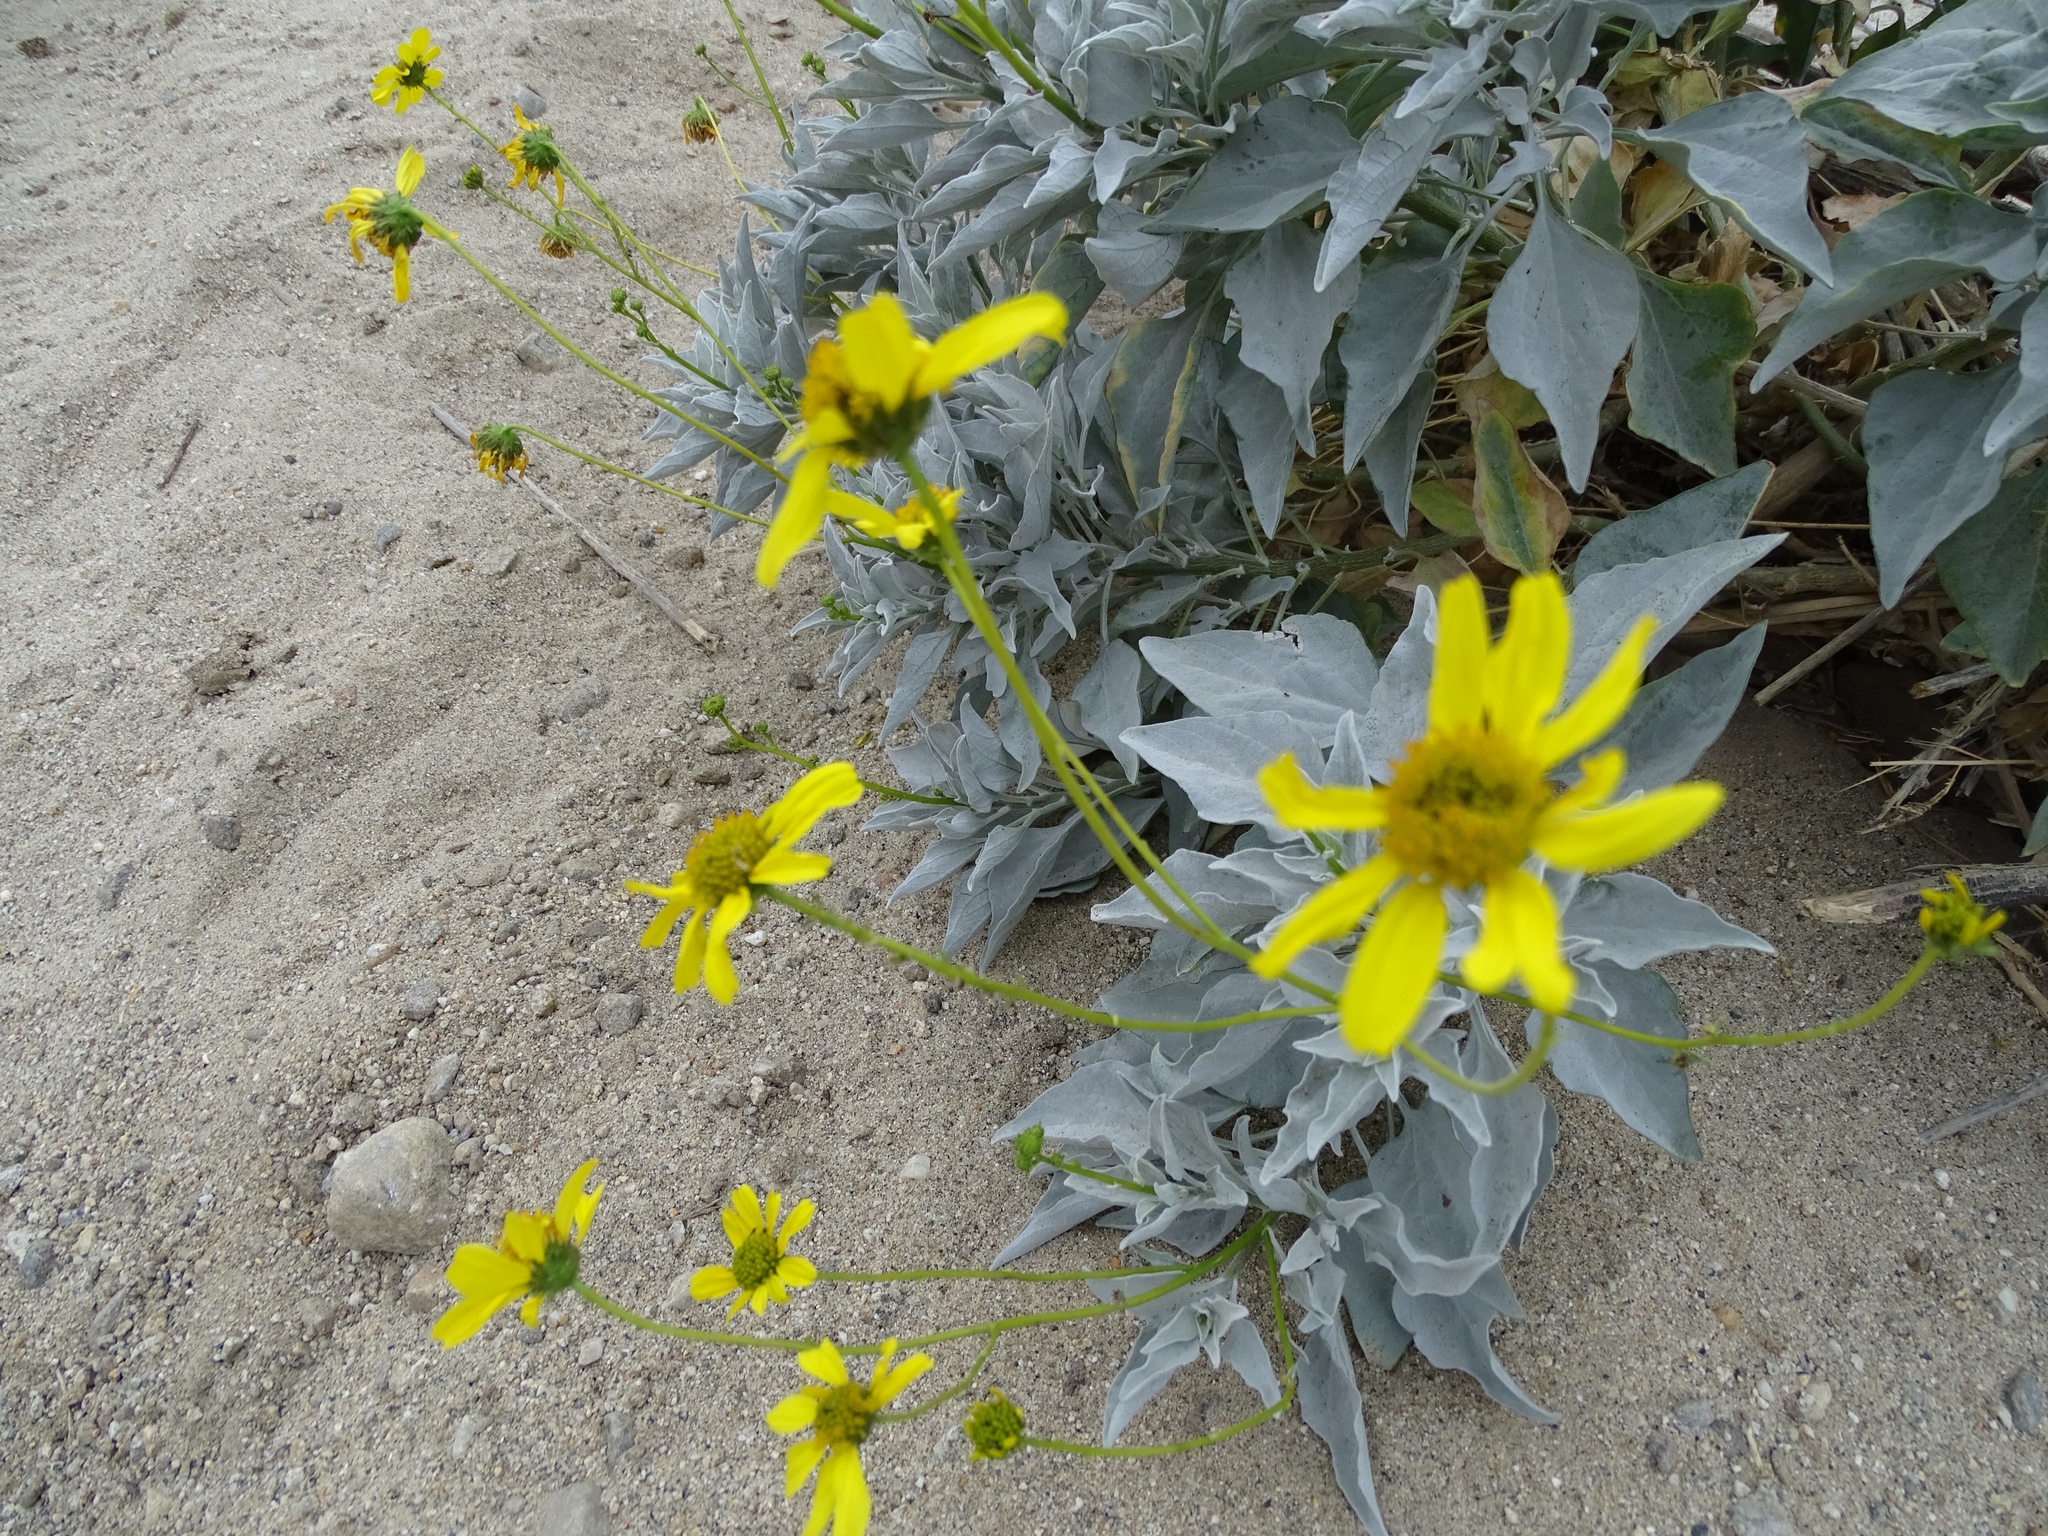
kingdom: Plantae
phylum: Tracheophyta
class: Magnoliopsida
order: Asterales
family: Asteraceae
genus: Encelia
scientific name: Encelia farinosa
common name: Brittlebush
